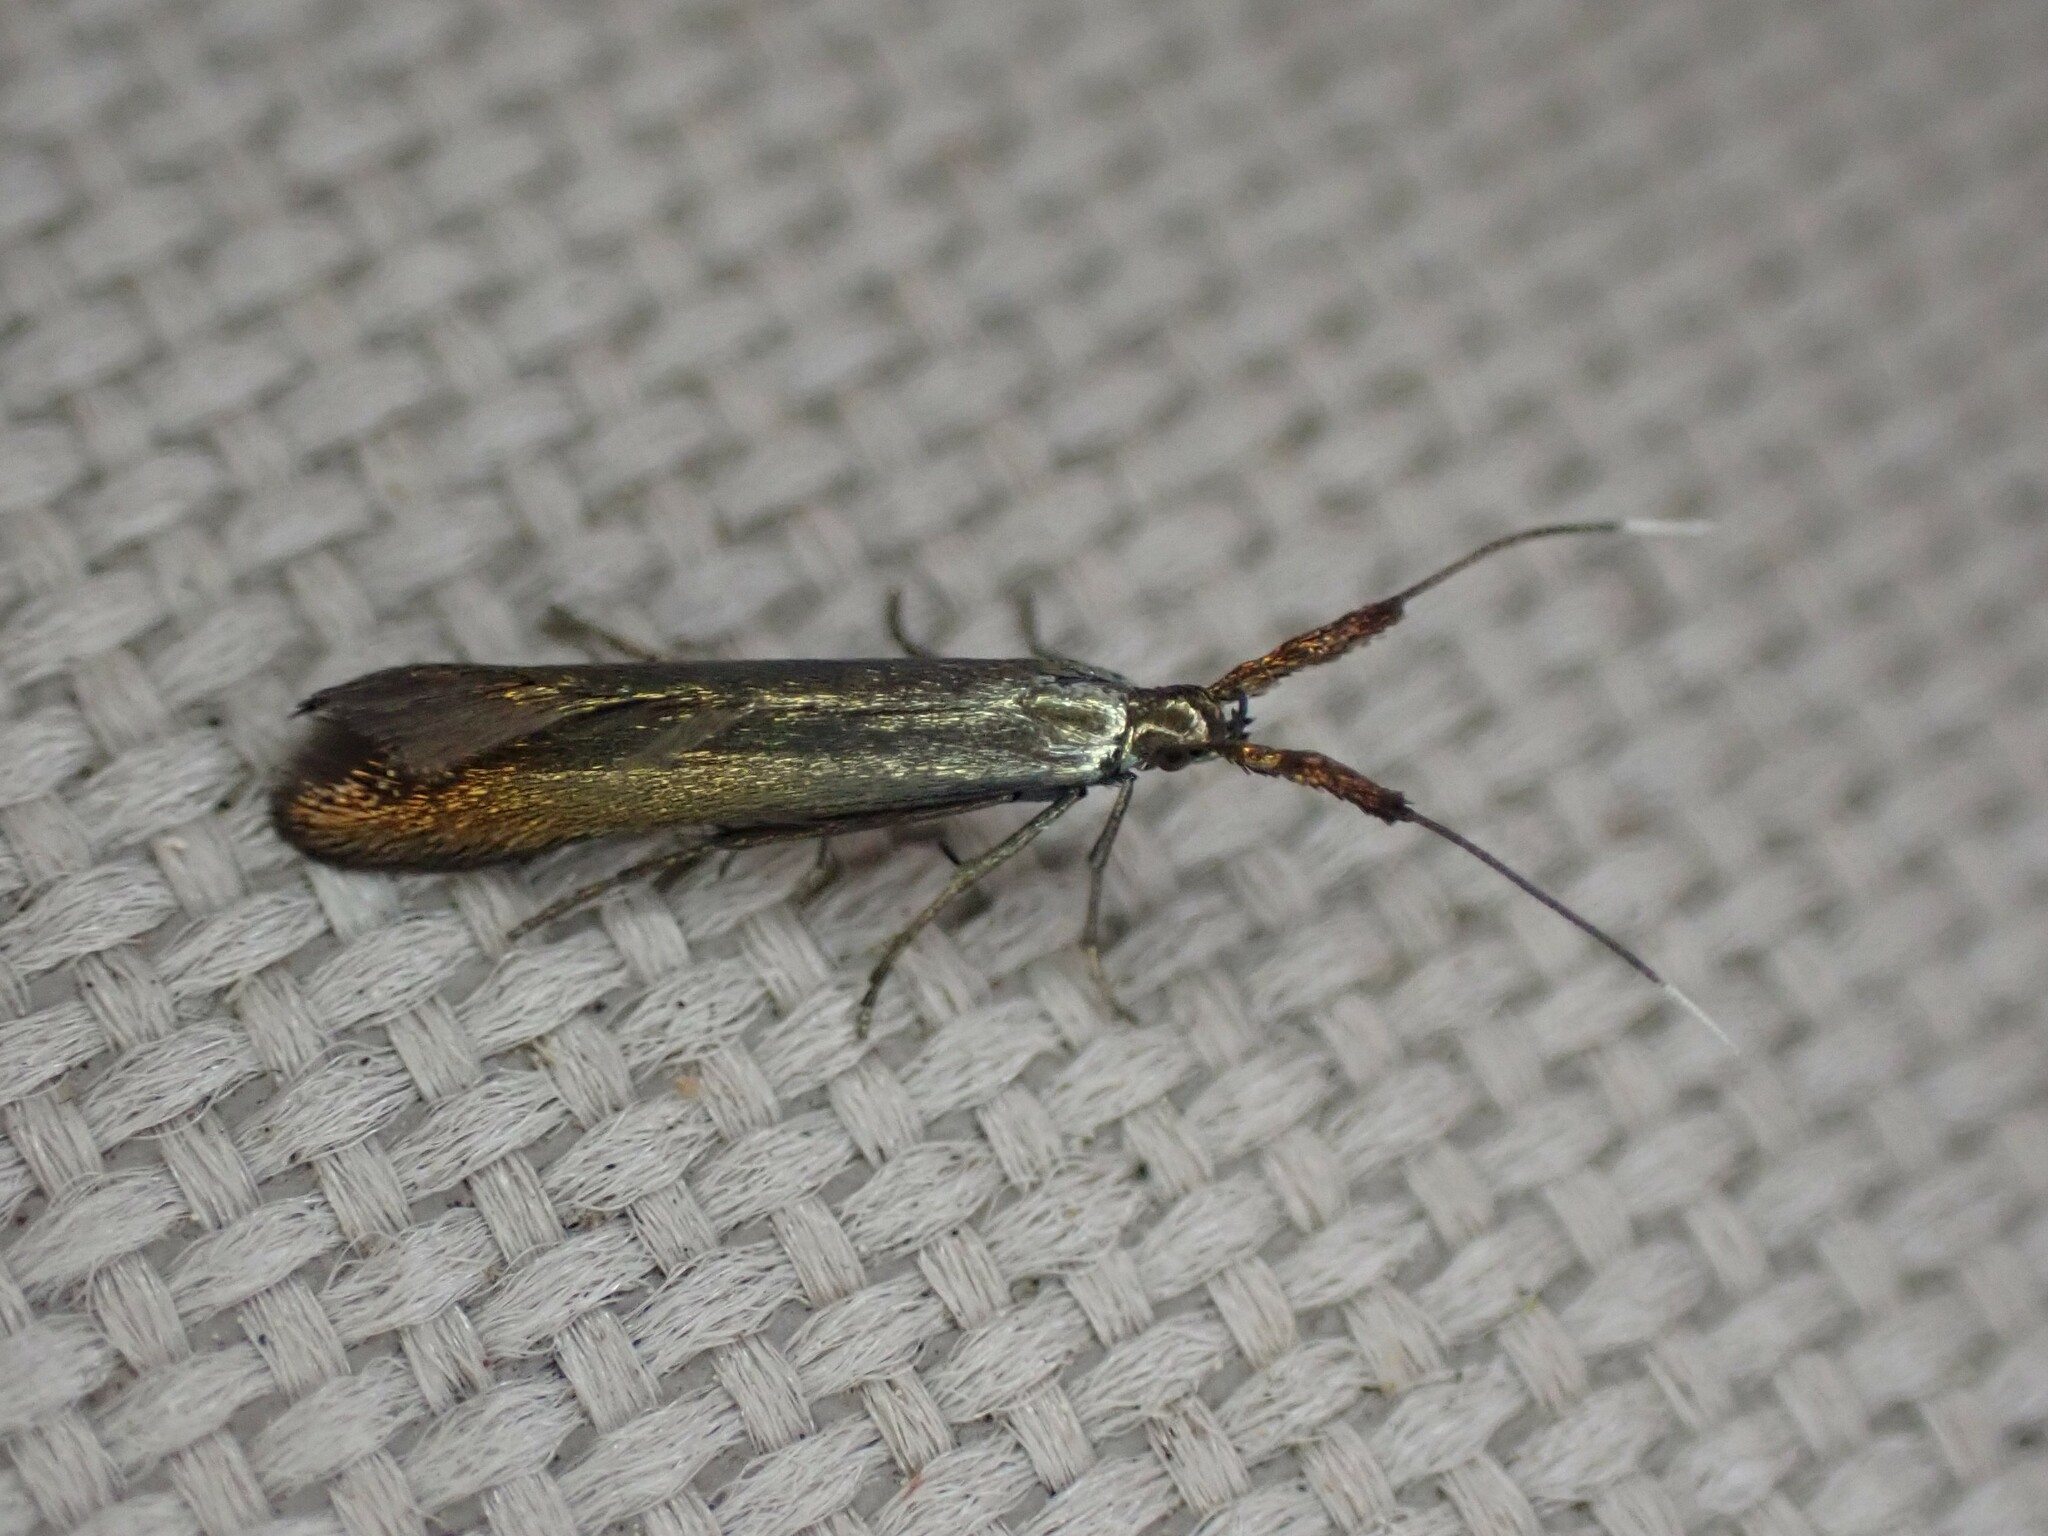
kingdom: Animalia
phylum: Arthropoda
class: Insecta
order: Lepidoptera
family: Coleophoridae
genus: Coleophora
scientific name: Coleophora deauratella
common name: Red-clover case-bearer
